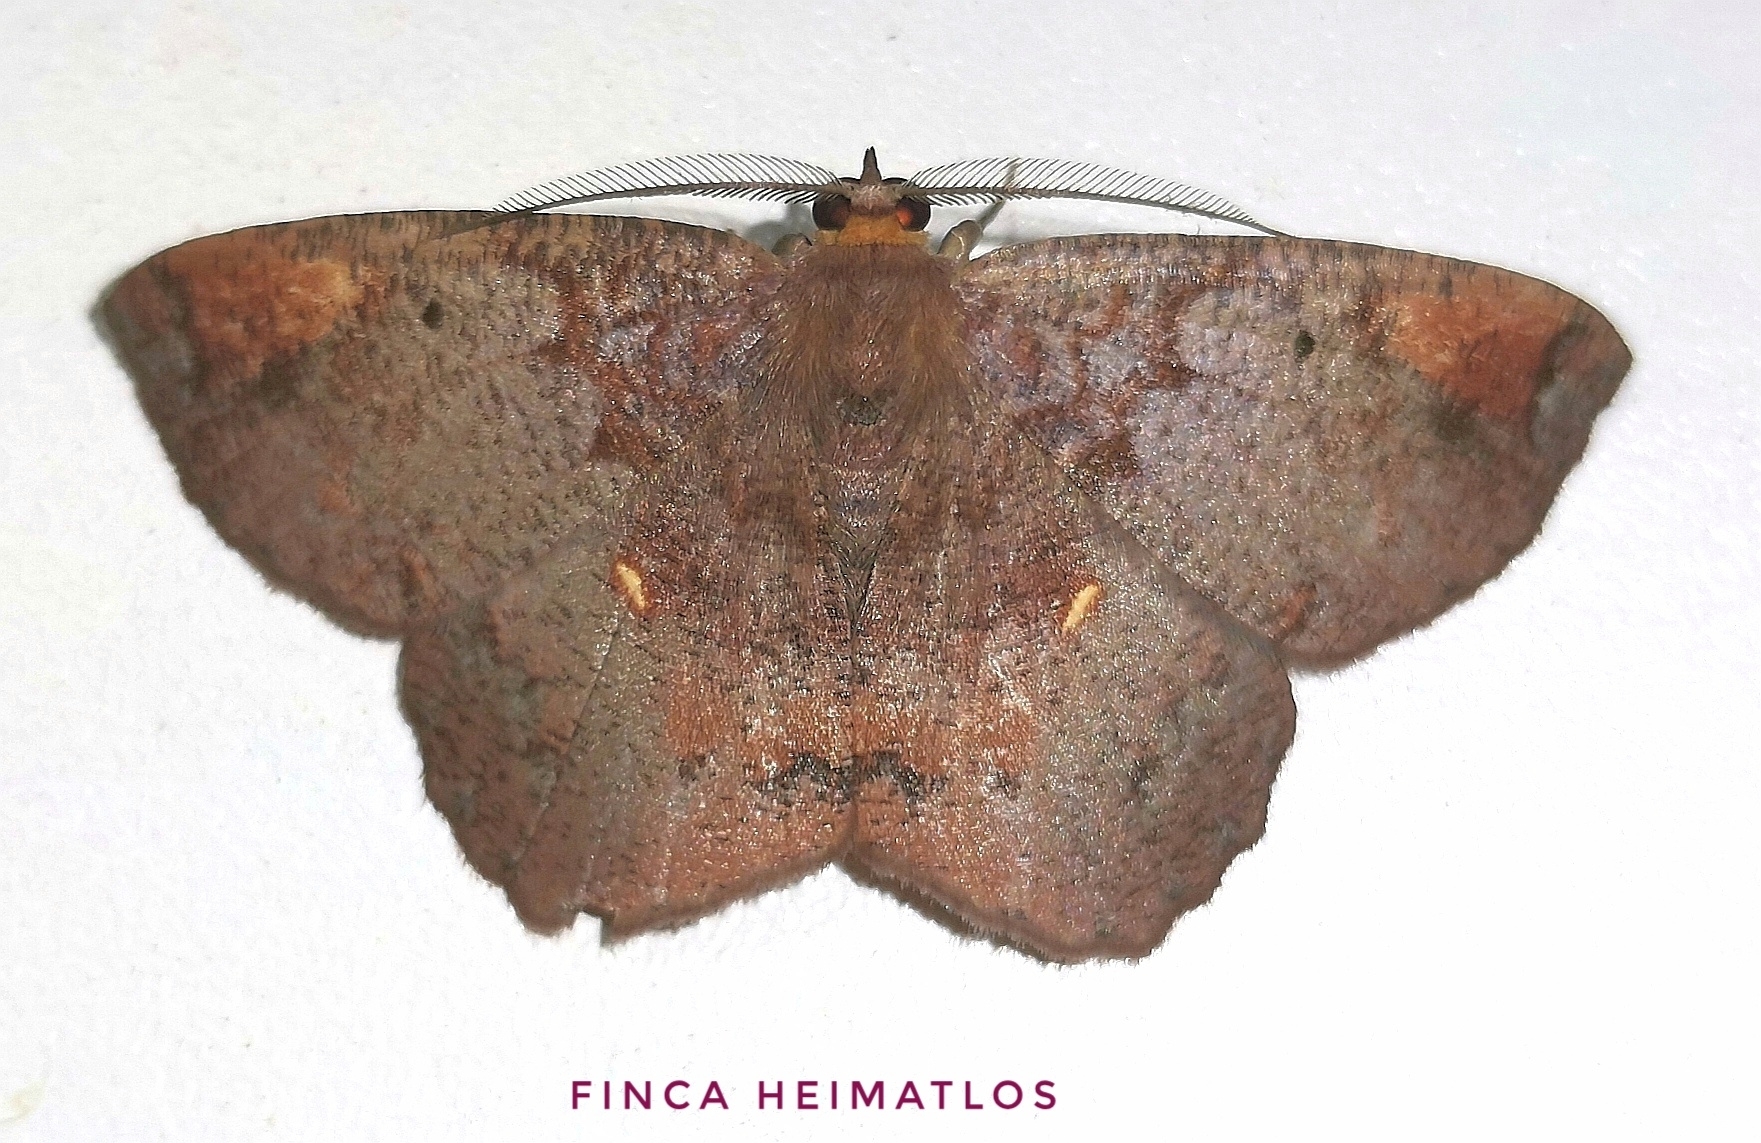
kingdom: Animalia
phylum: Arthropoda
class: Insecta
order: Lepidoptera
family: Geometridae
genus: Thysanopyga
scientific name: Thysanopyga
